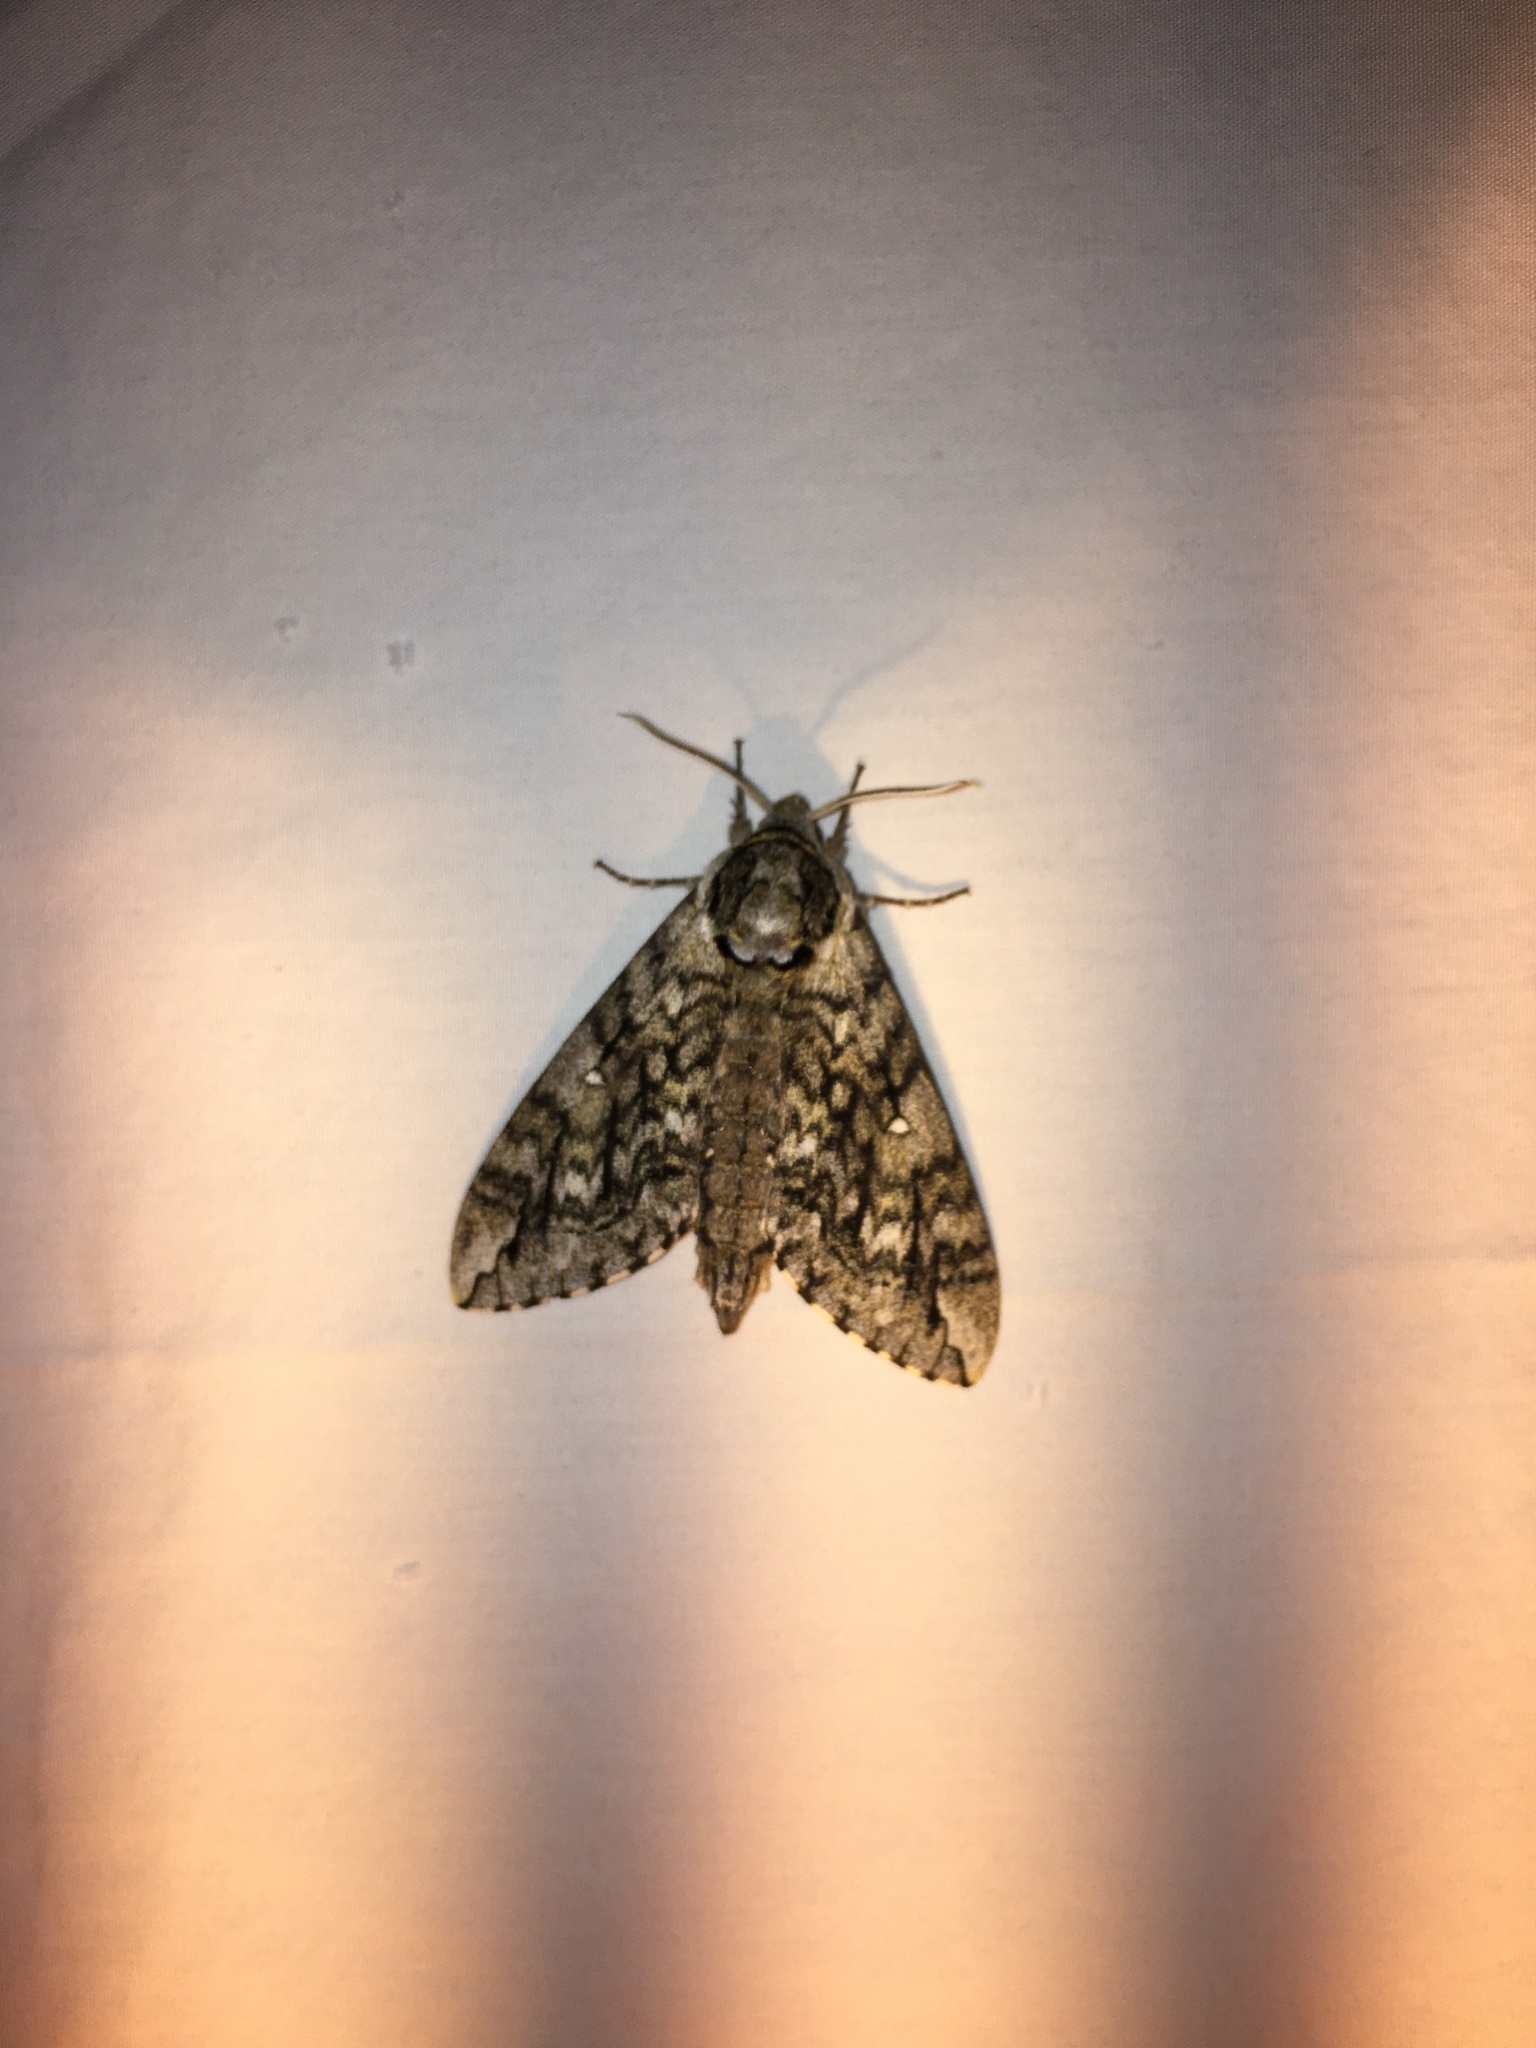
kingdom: Animalia
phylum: Arthropoda
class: Insecta
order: Lepidoptera
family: Sphingidae
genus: Ceratomia
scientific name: Ceratomia undulosa
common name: Waved sphinx
